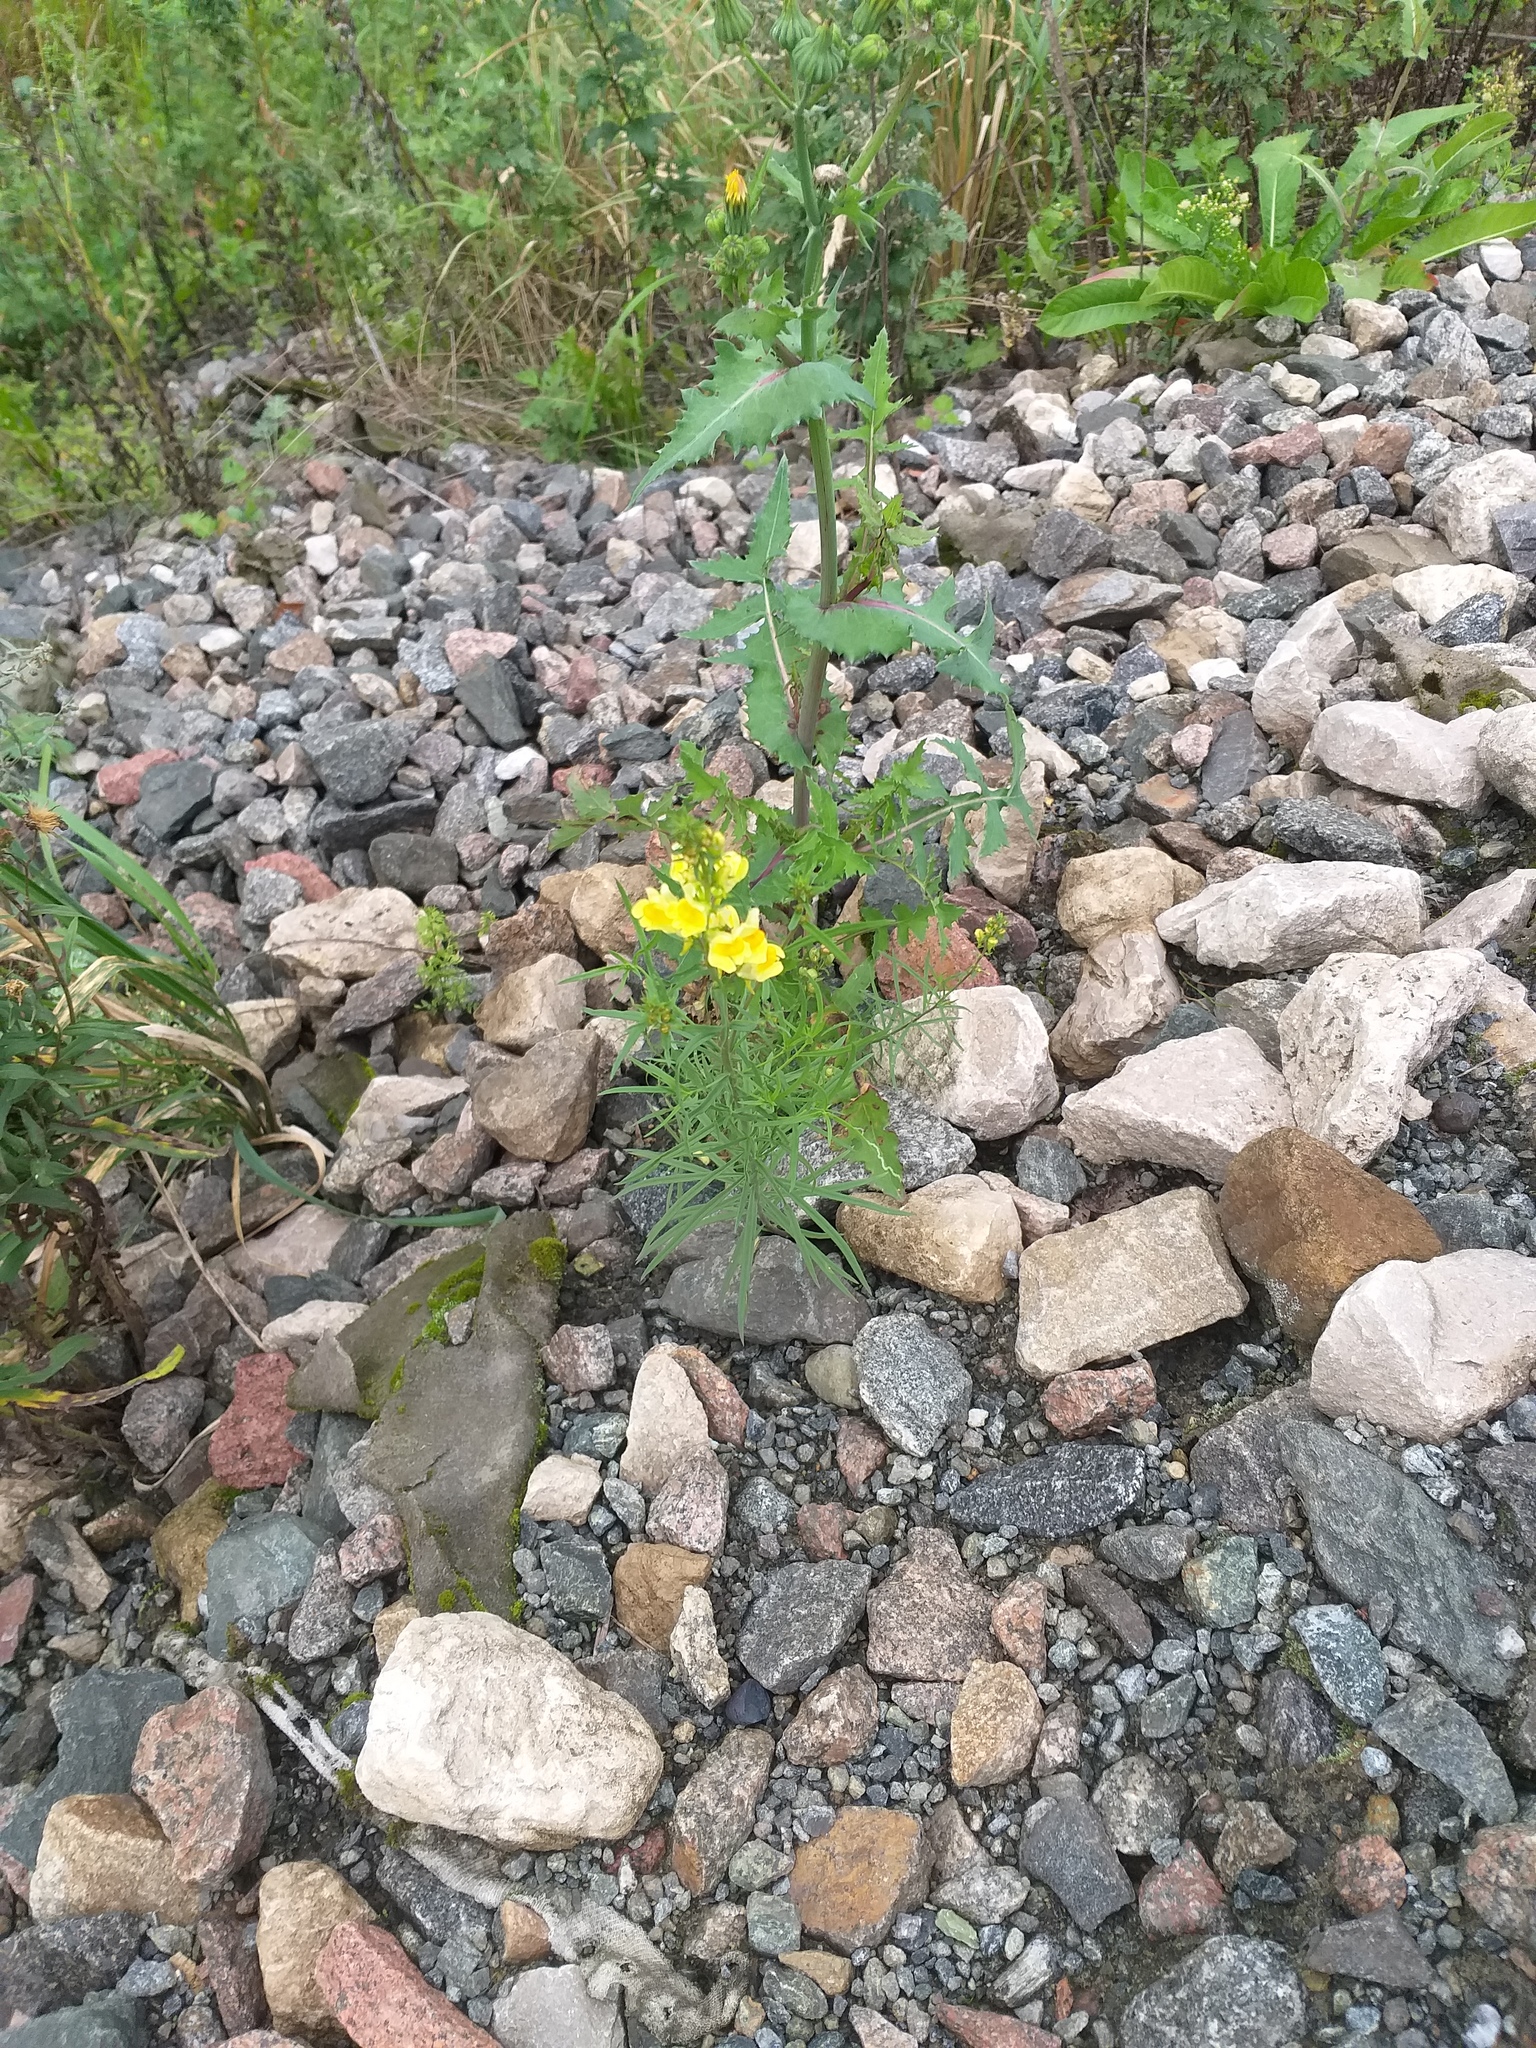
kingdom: Plantae
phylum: Tracheophyta
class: Magnoliopsida
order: Lamiales
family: Plantaginaceae
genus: Linaria
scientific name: Linaria vulgaris
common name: Butter and eggs
